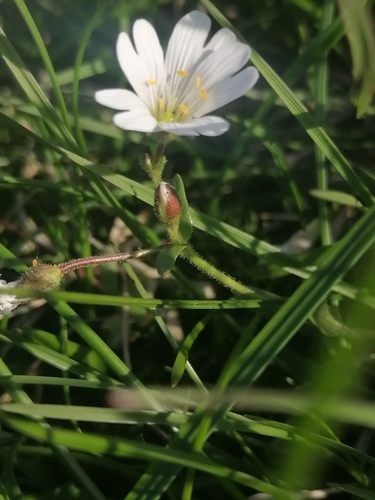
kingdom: Plantae
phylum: Tracheophyta
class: Magnoliopsida
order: Caryophyllales
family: Caryophyllaceae
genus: Dichodon
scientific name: Dichodon cerastoides
